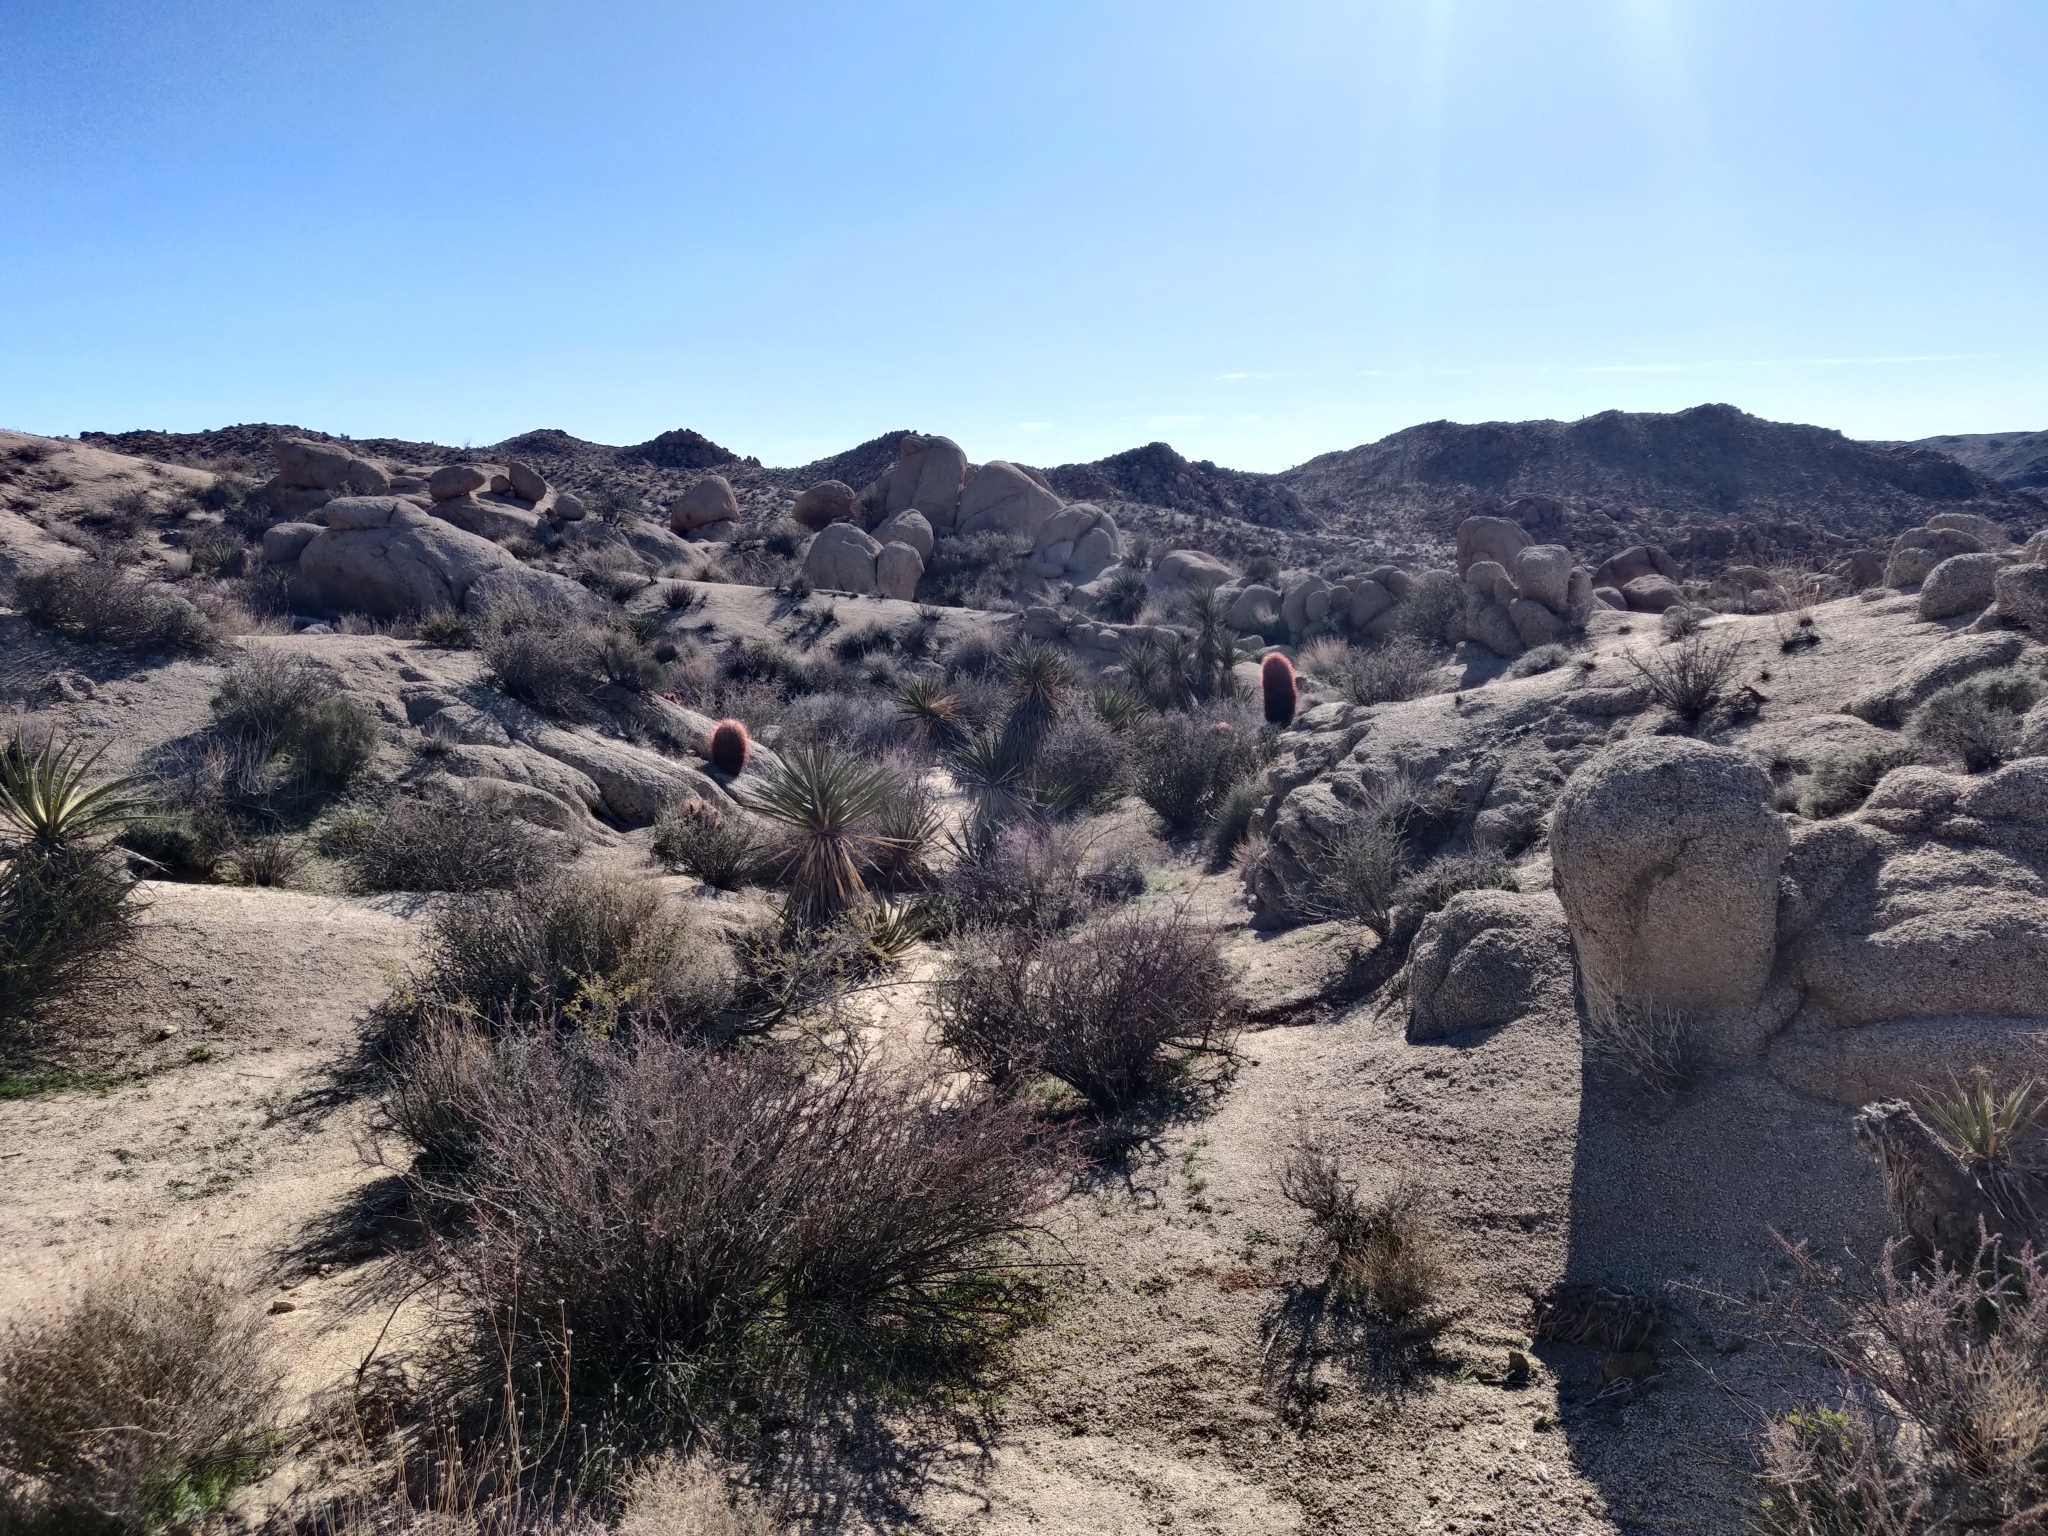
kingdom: Plantae
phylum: Tracheophyta
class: Magnoliopsida
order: Caryophyllales
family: Cactaceae
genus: Ferocactus
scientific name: Ferocactus cylindraceus
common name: California barrel cactus
